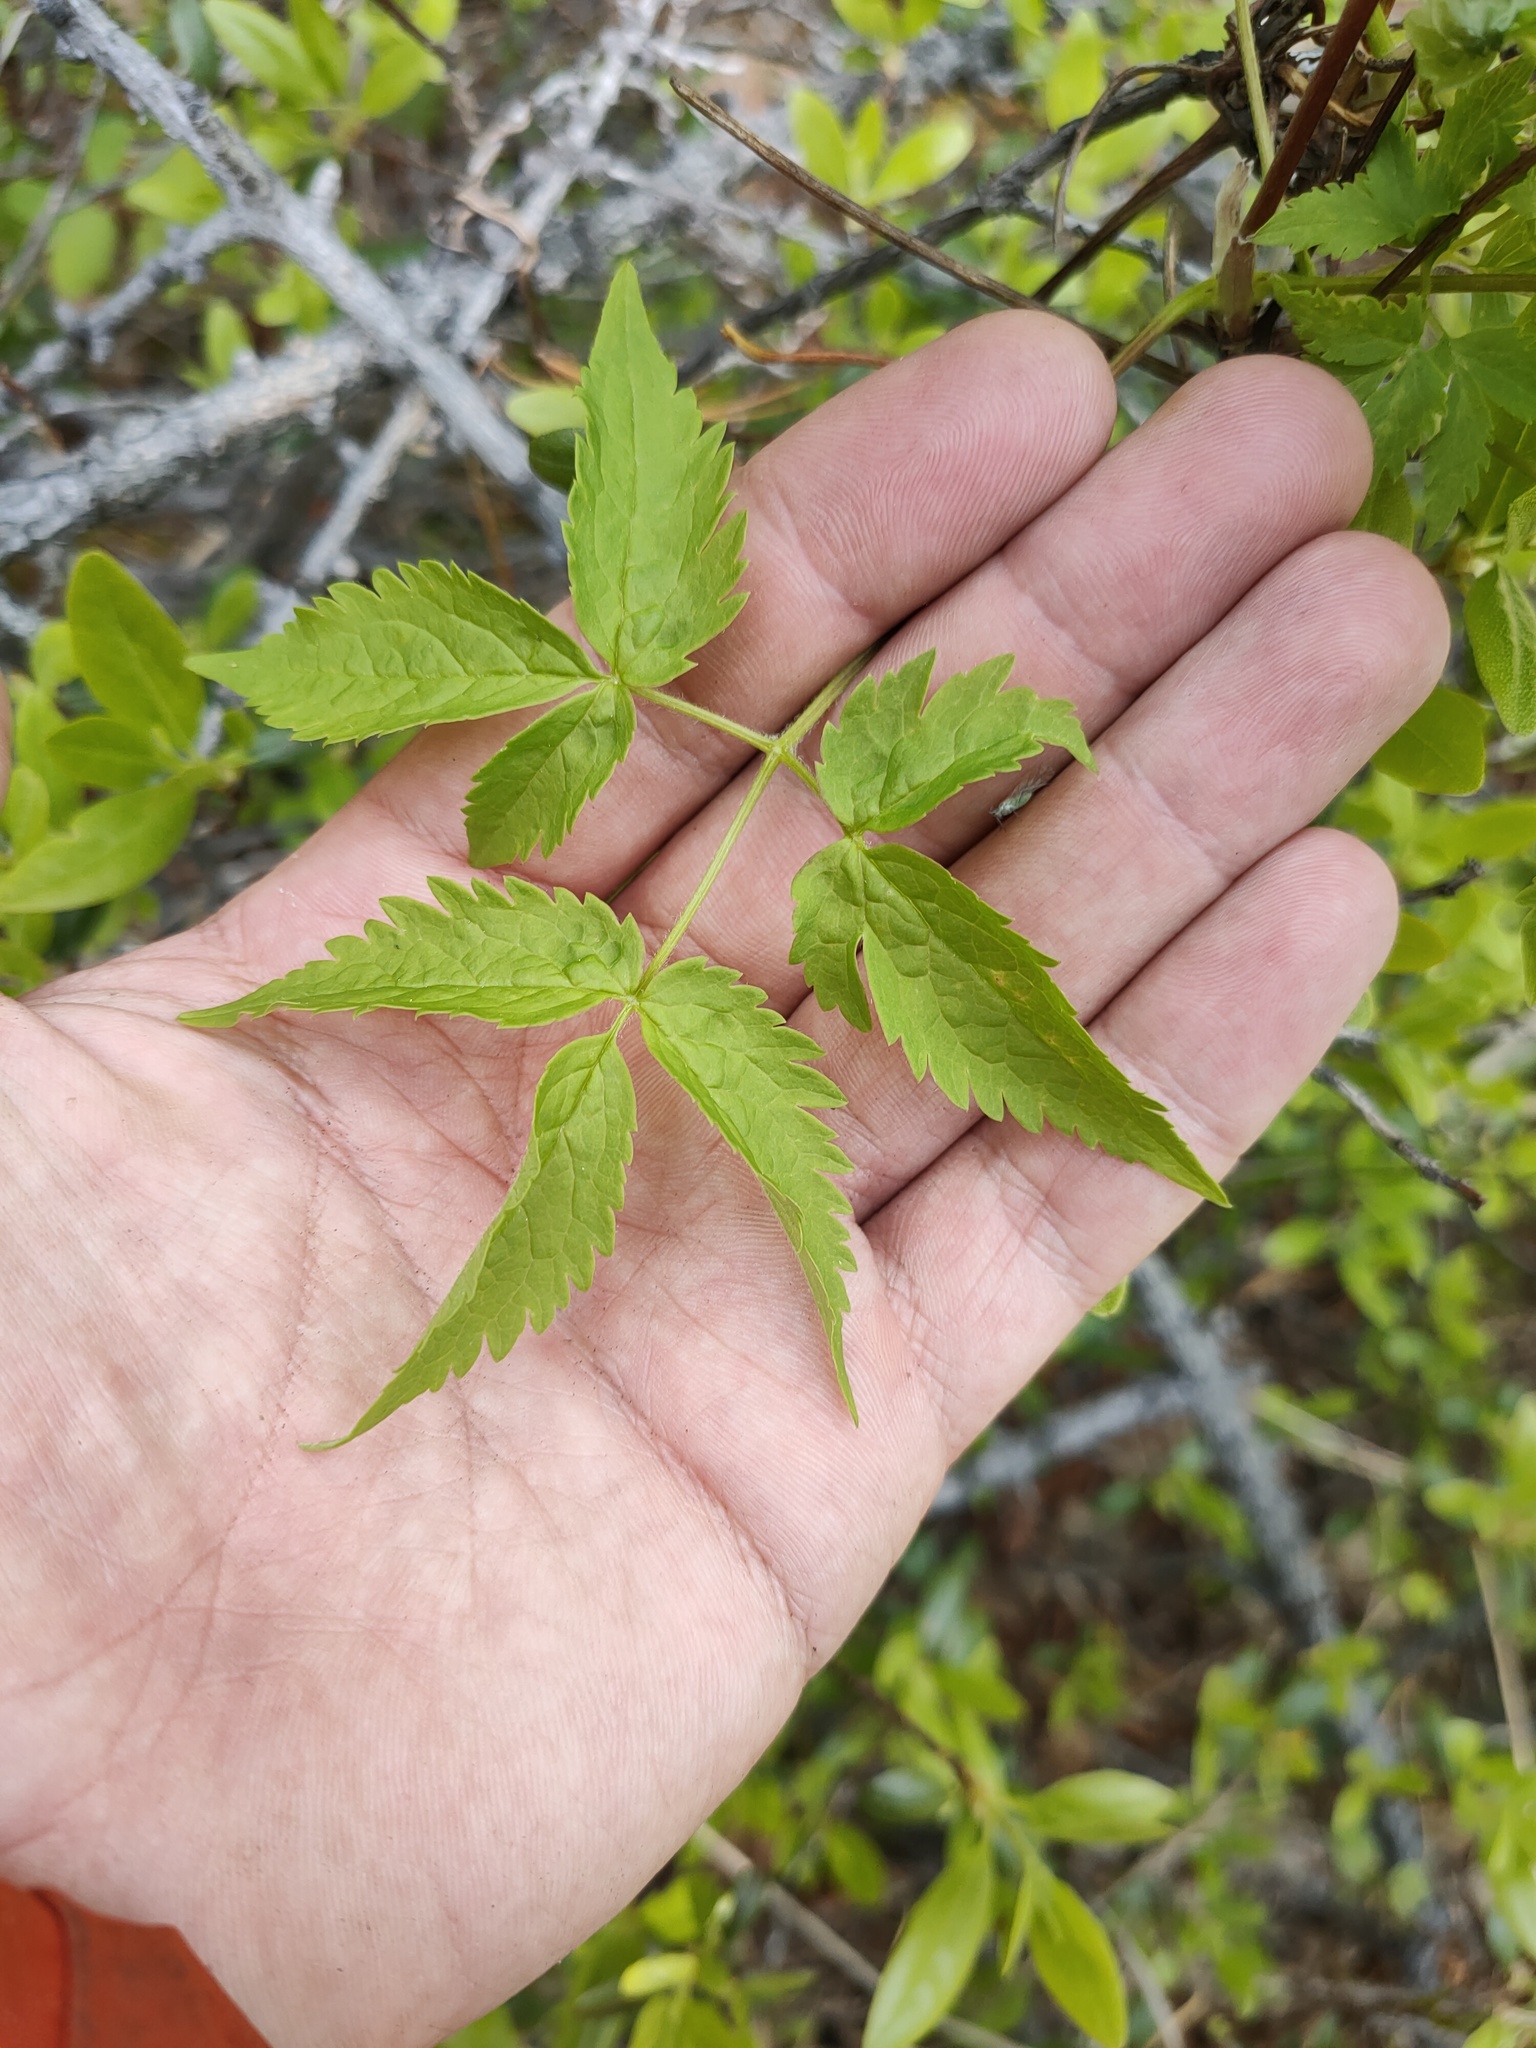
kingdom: Plantae
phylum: Tracheophyta
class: Magnoliopsida
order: Ranunculales
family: Ranunculaceae
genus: Clematis
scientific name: Clematis sibirica
